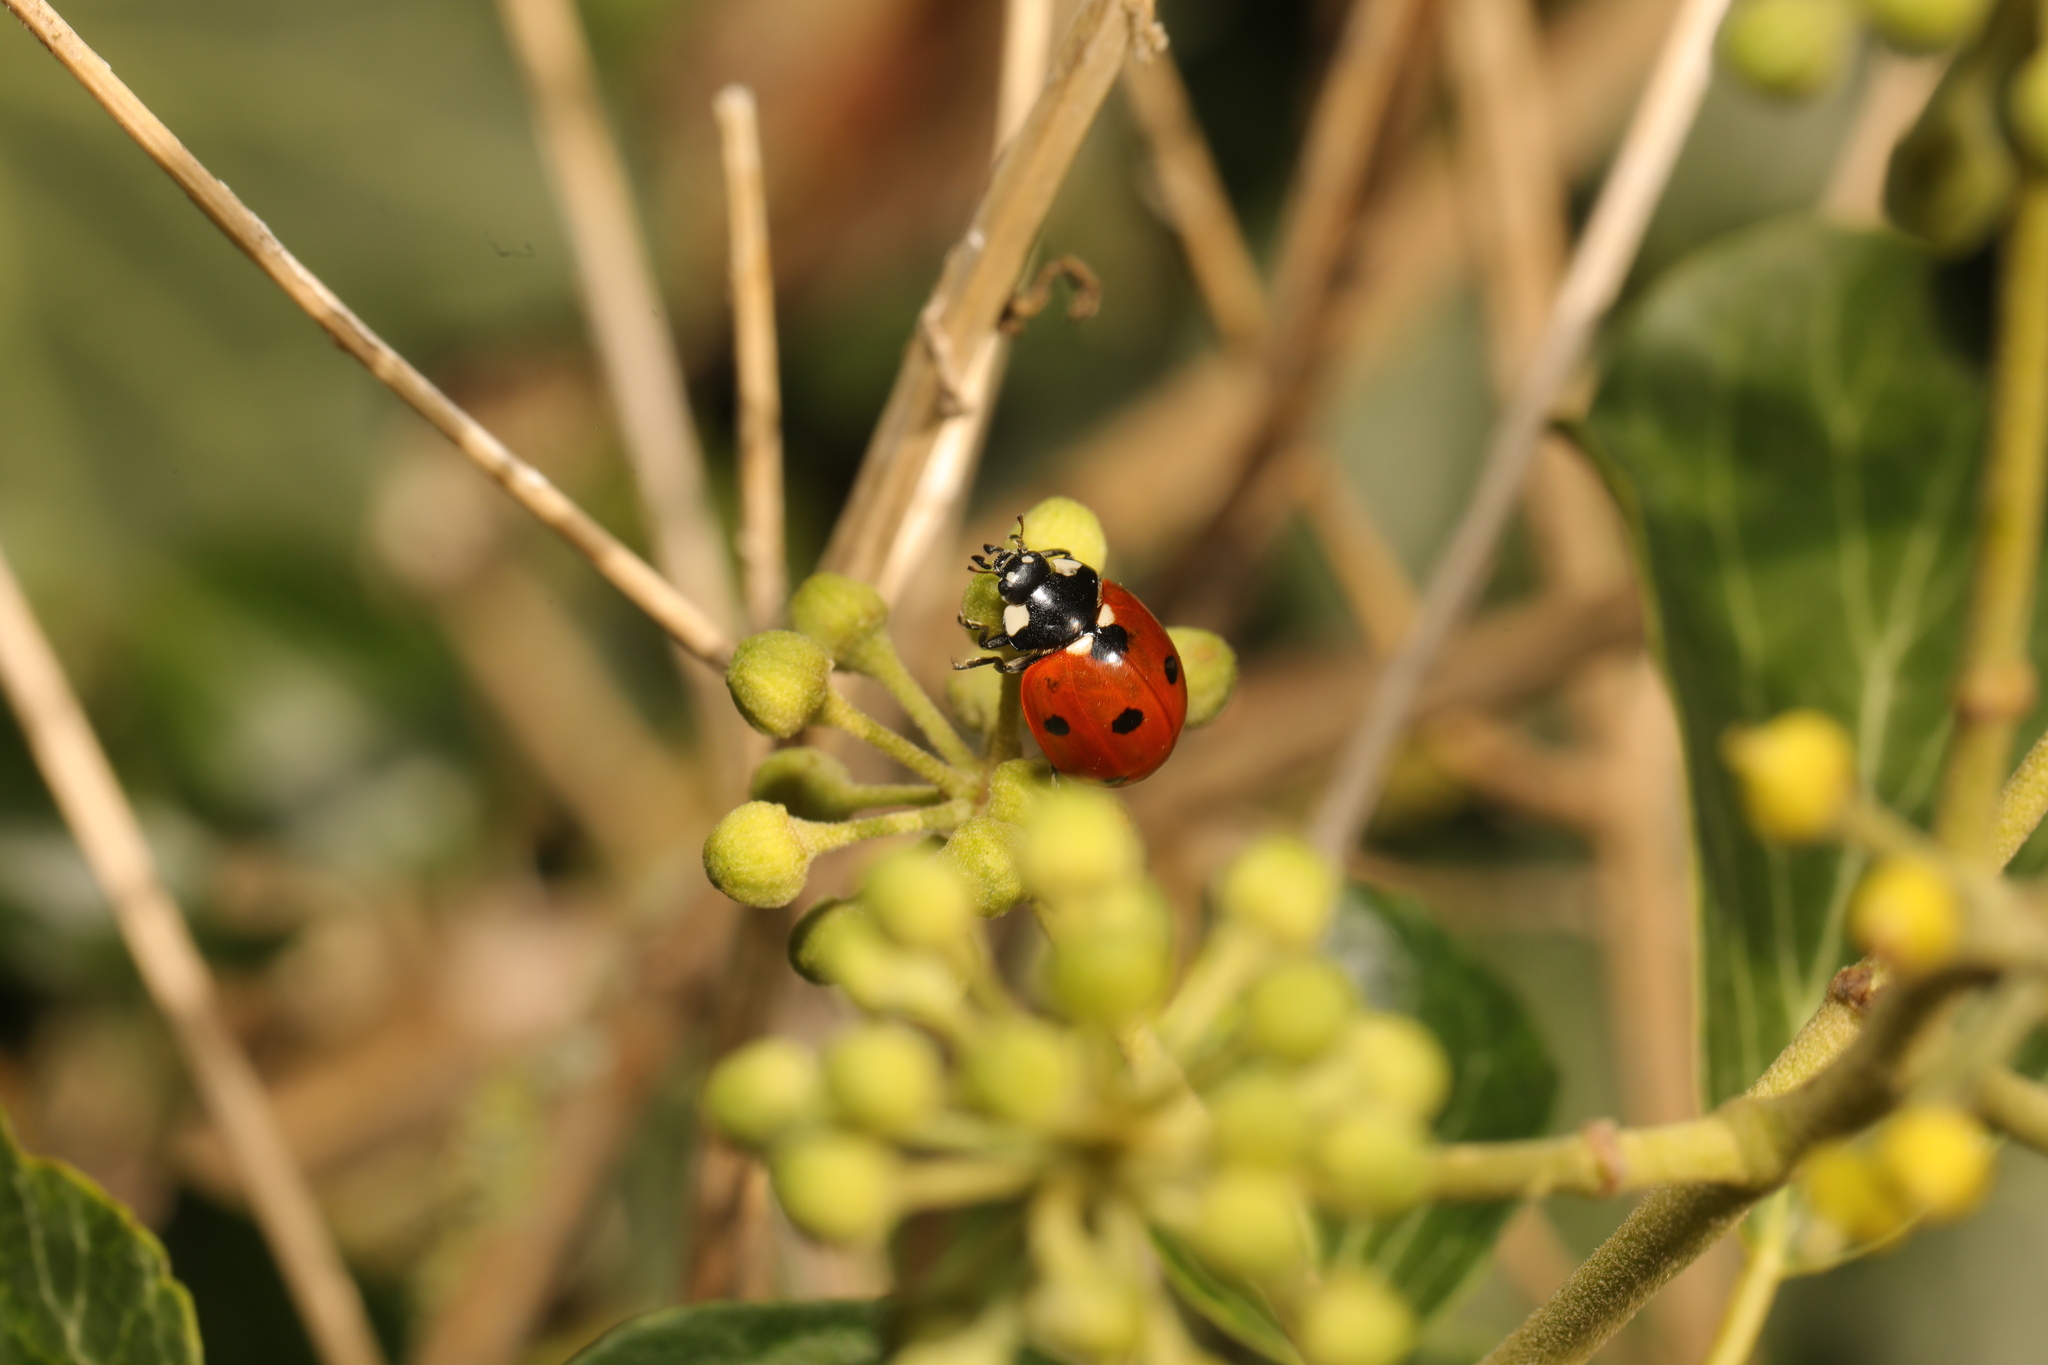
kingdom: Animalia
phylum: Arthropoda
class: Insecta
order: Coleoptera
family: Coccinellidae
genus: Coccinella
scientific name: Coccinella septempunctata
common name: Sevenspotted lady beetle
